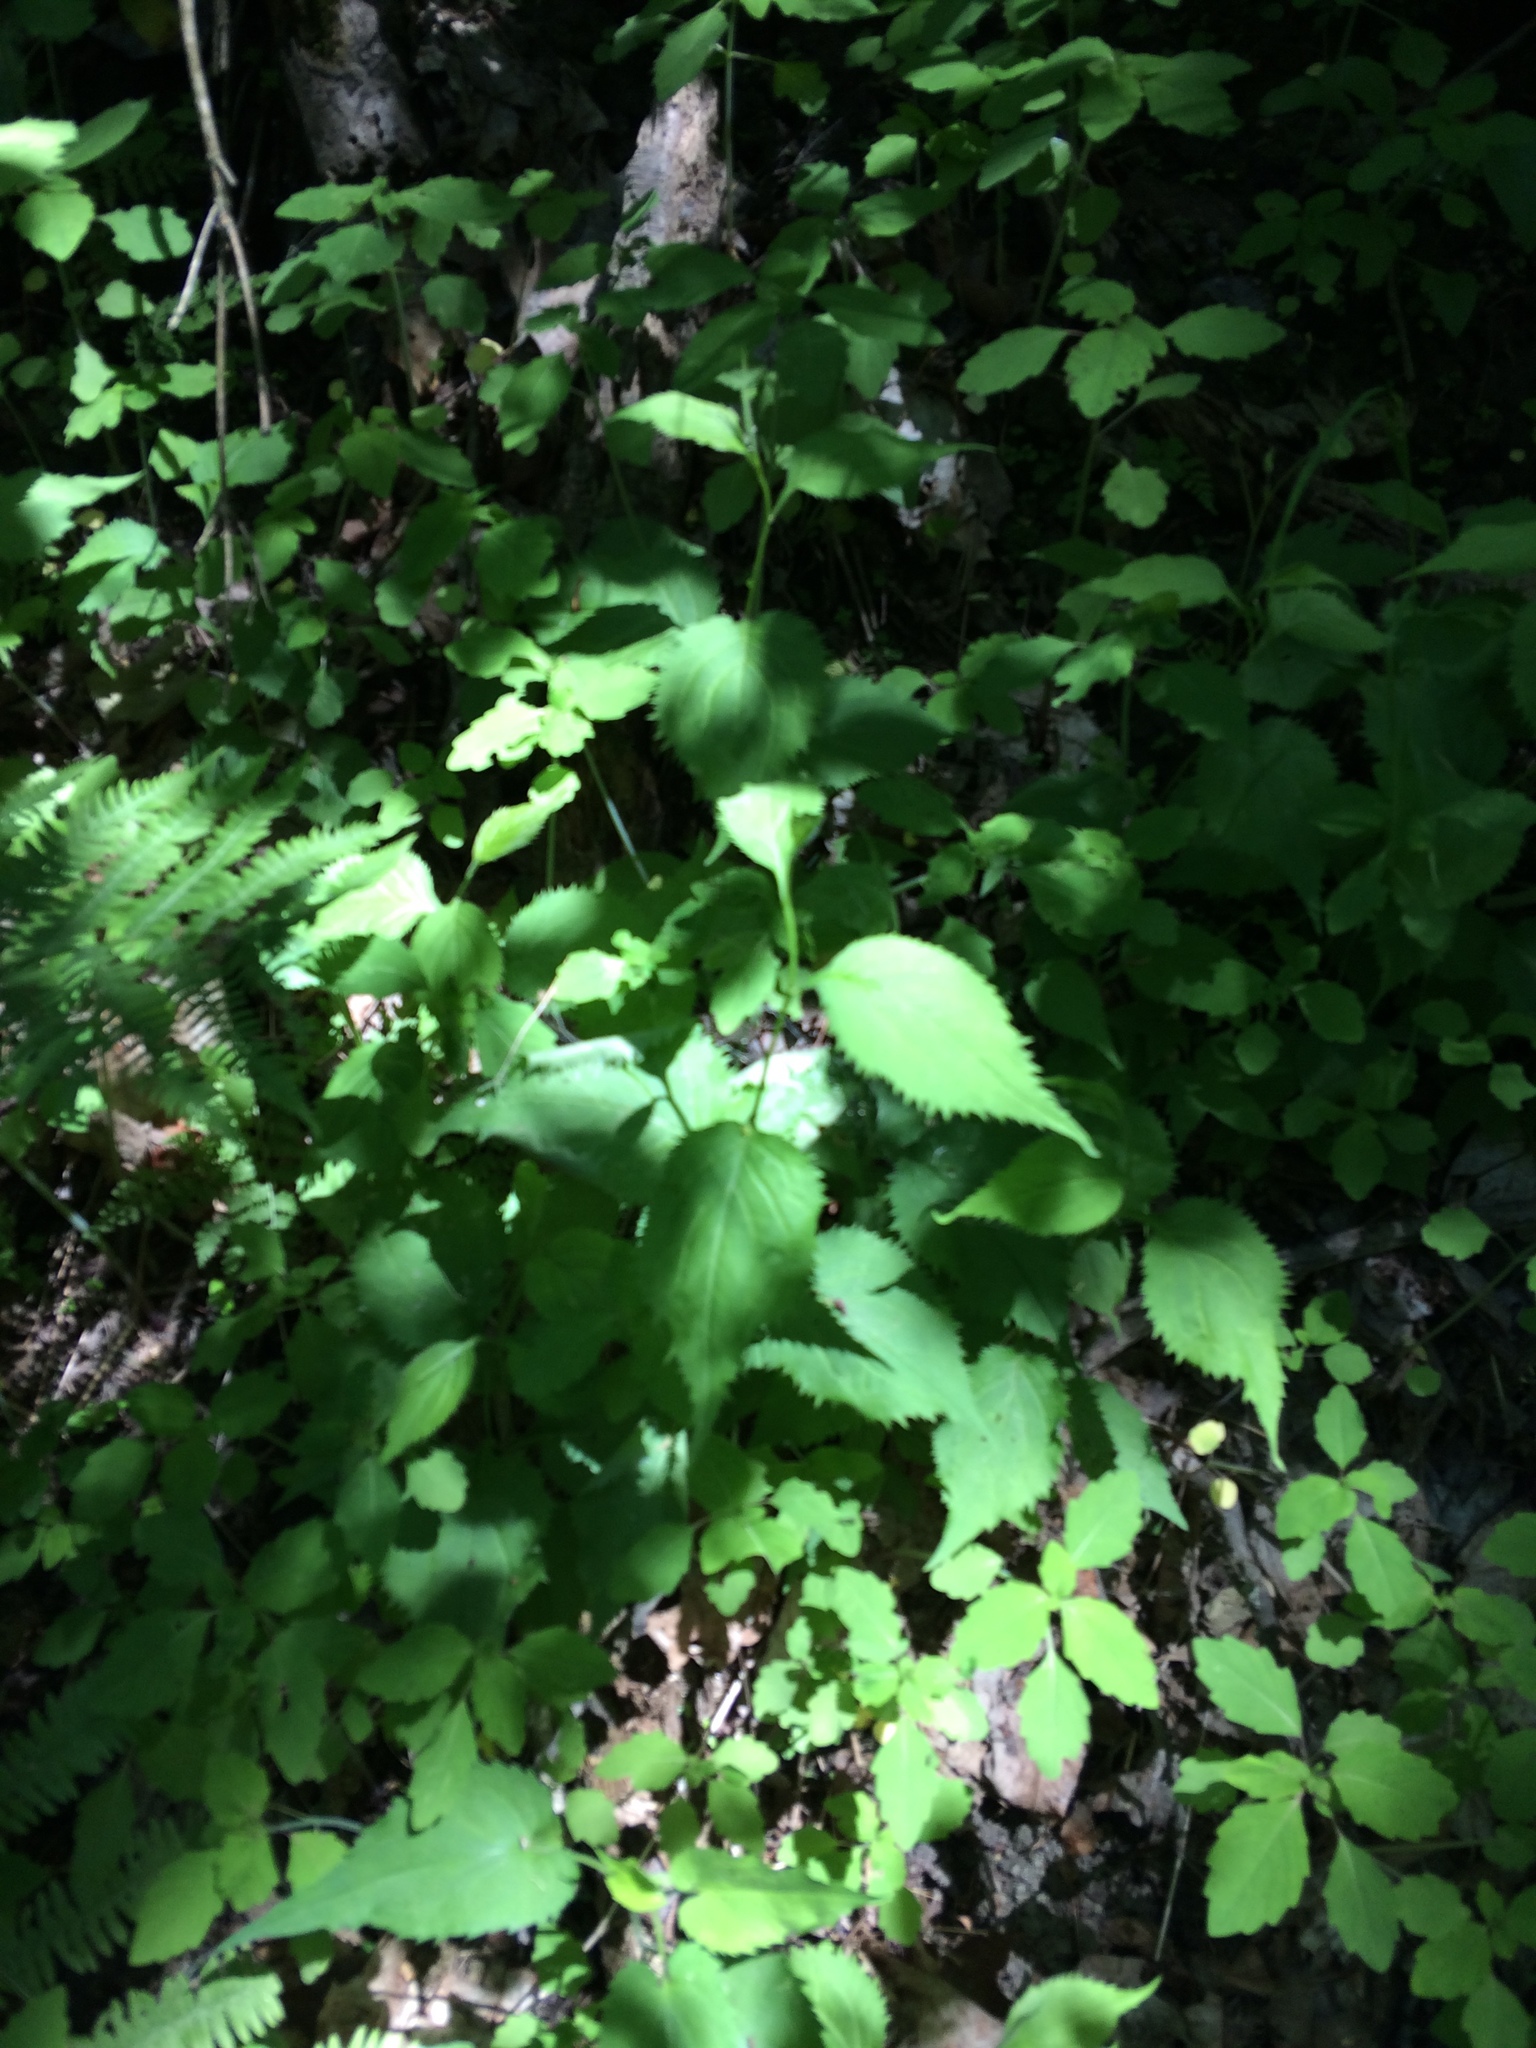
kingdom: Plantae
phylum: Tracheophyta
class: Magnoliopsida
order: Asterales
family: Asteraceae
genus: Solidago
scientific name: Solidago flexicaulis
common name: Zig-zag goldenrod
